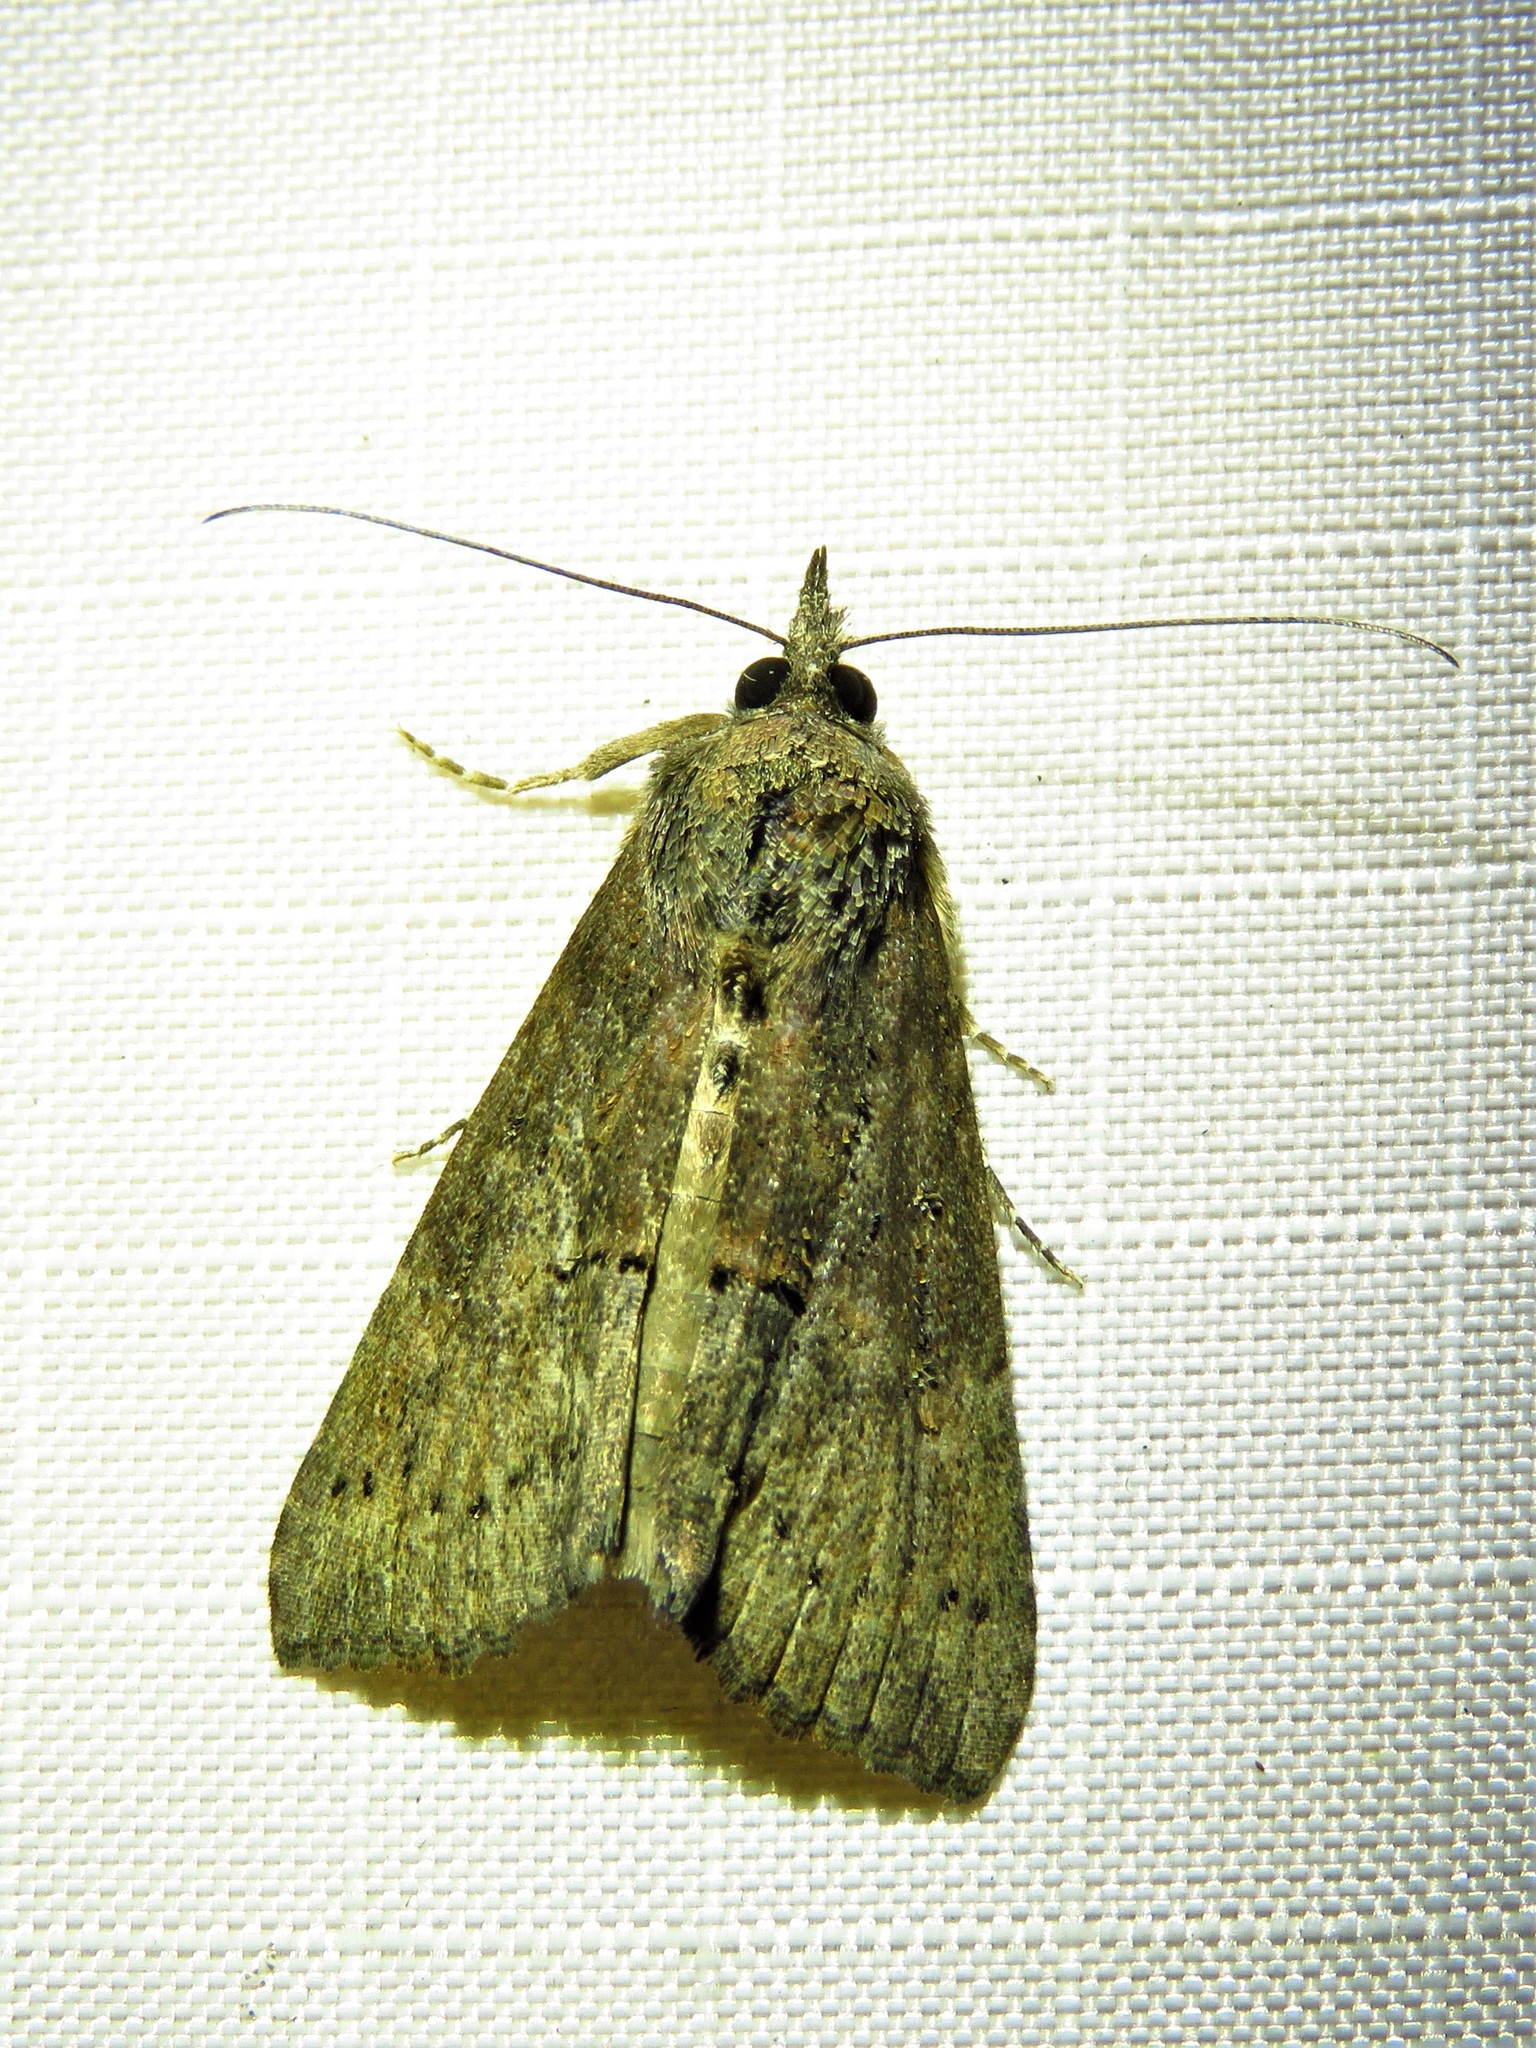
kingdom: Animalia
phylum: Arthropoda
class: Insecta
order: Lepidoptera
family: Erebidae
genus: Hypena
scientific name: Hypena scabra
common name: Green cloverworm
